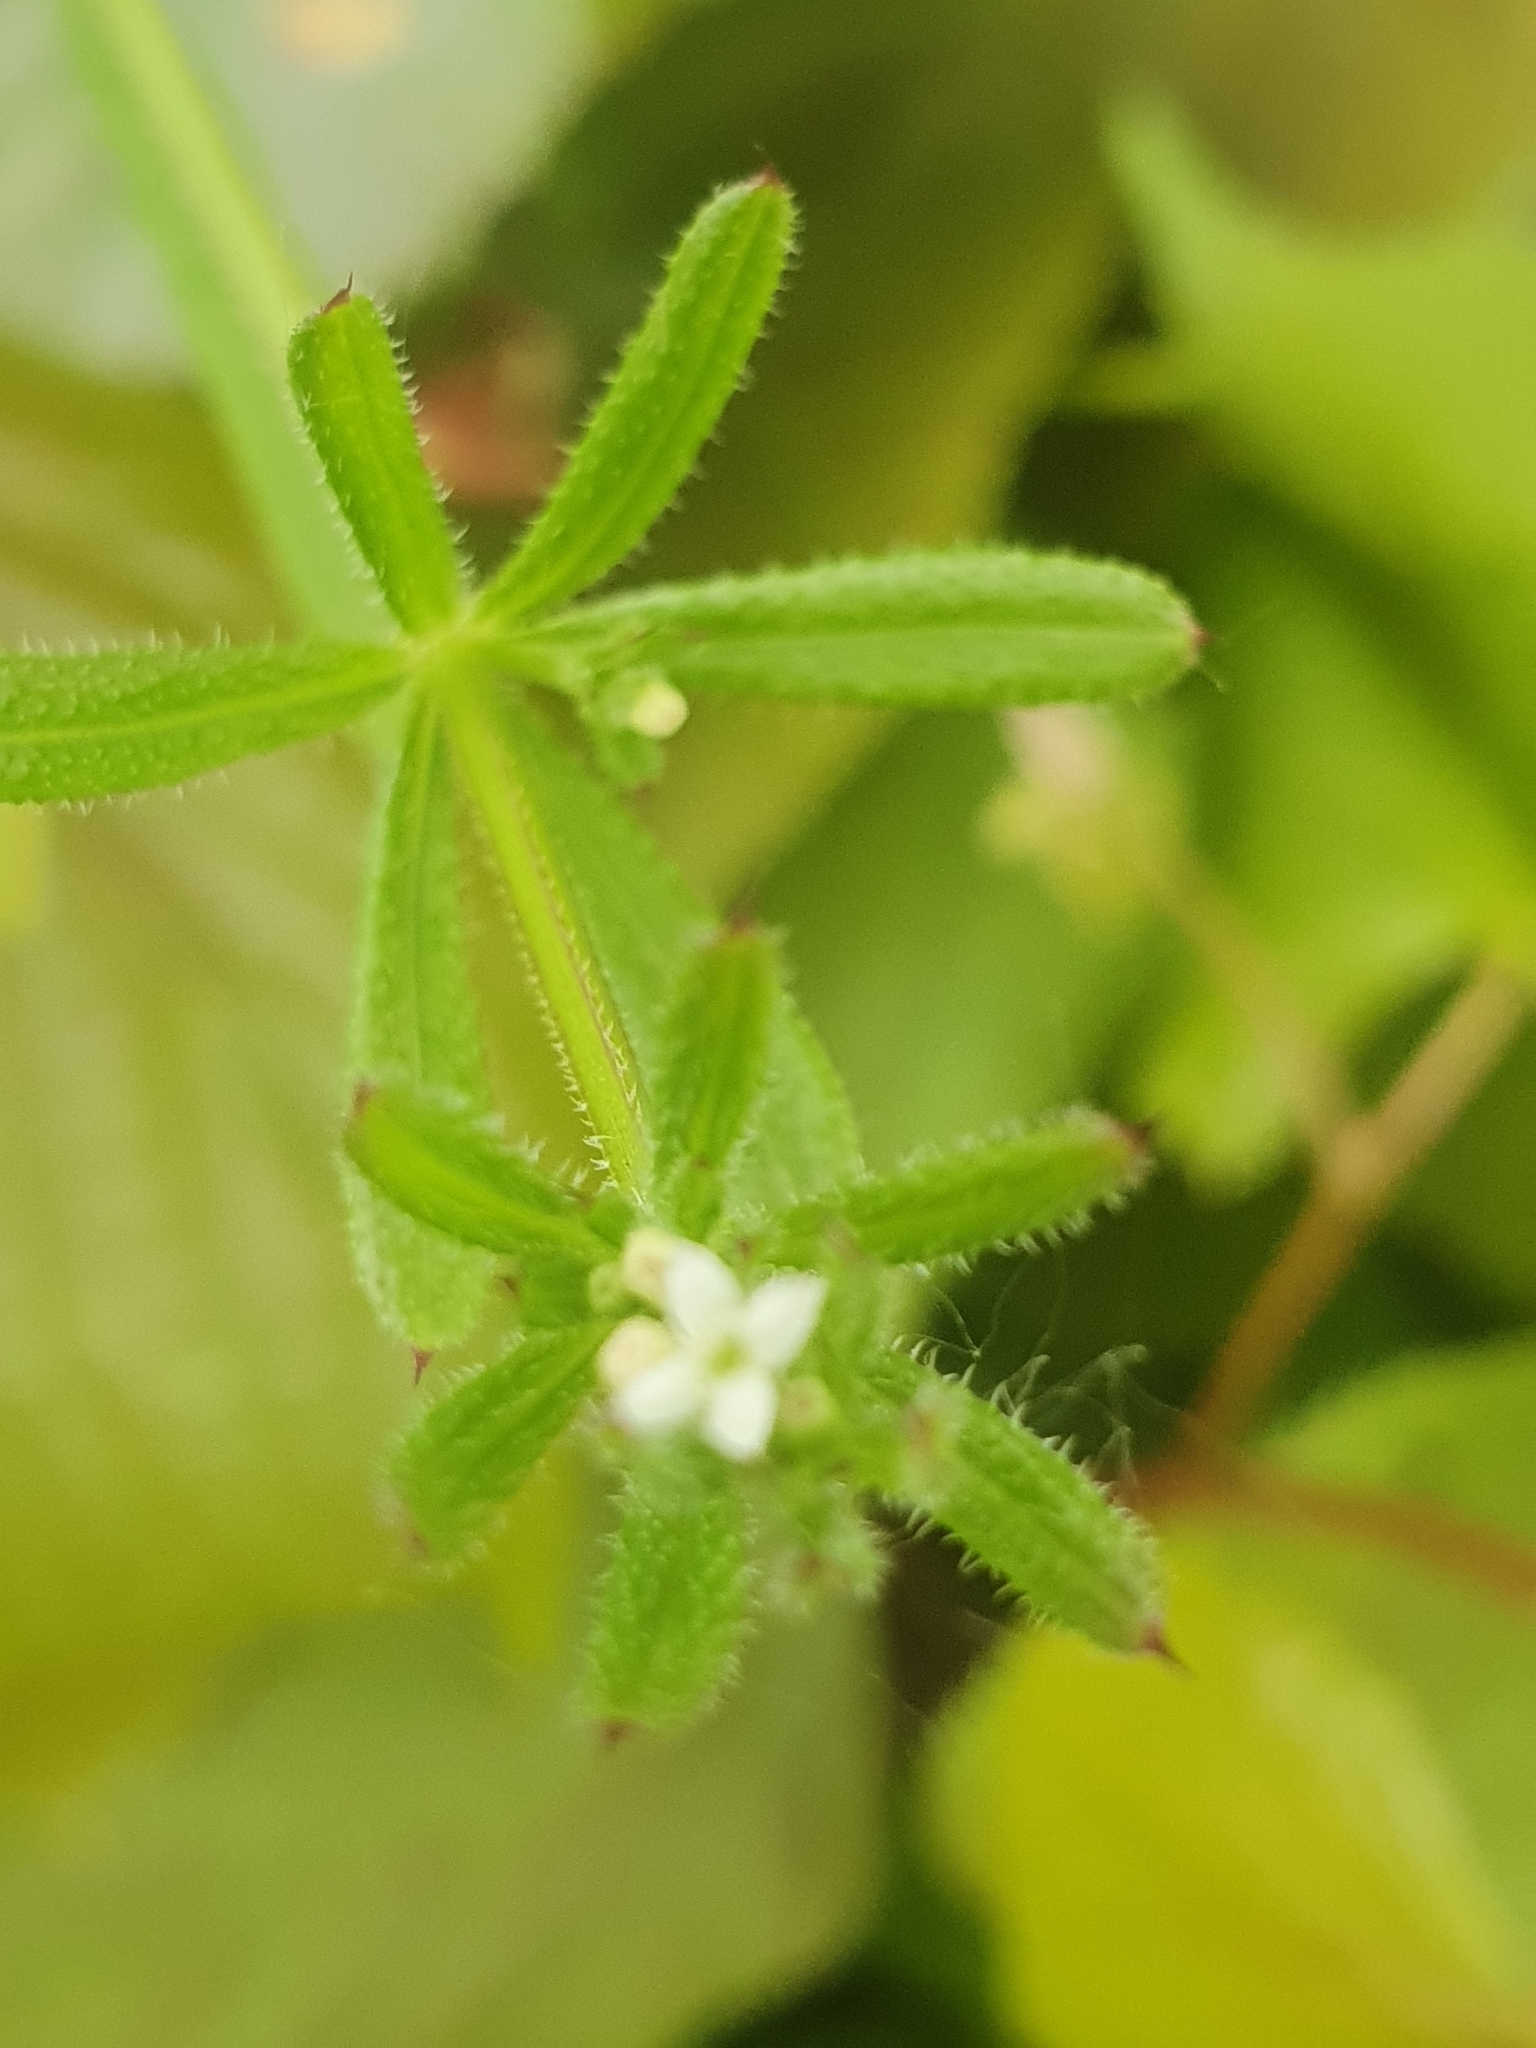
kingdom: Plantae
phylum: Tracheophyta
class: Magnoliopsida
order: Gentianales
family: Rubiaceae
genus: Galium
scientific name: Galium aparine
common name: Cleavers
